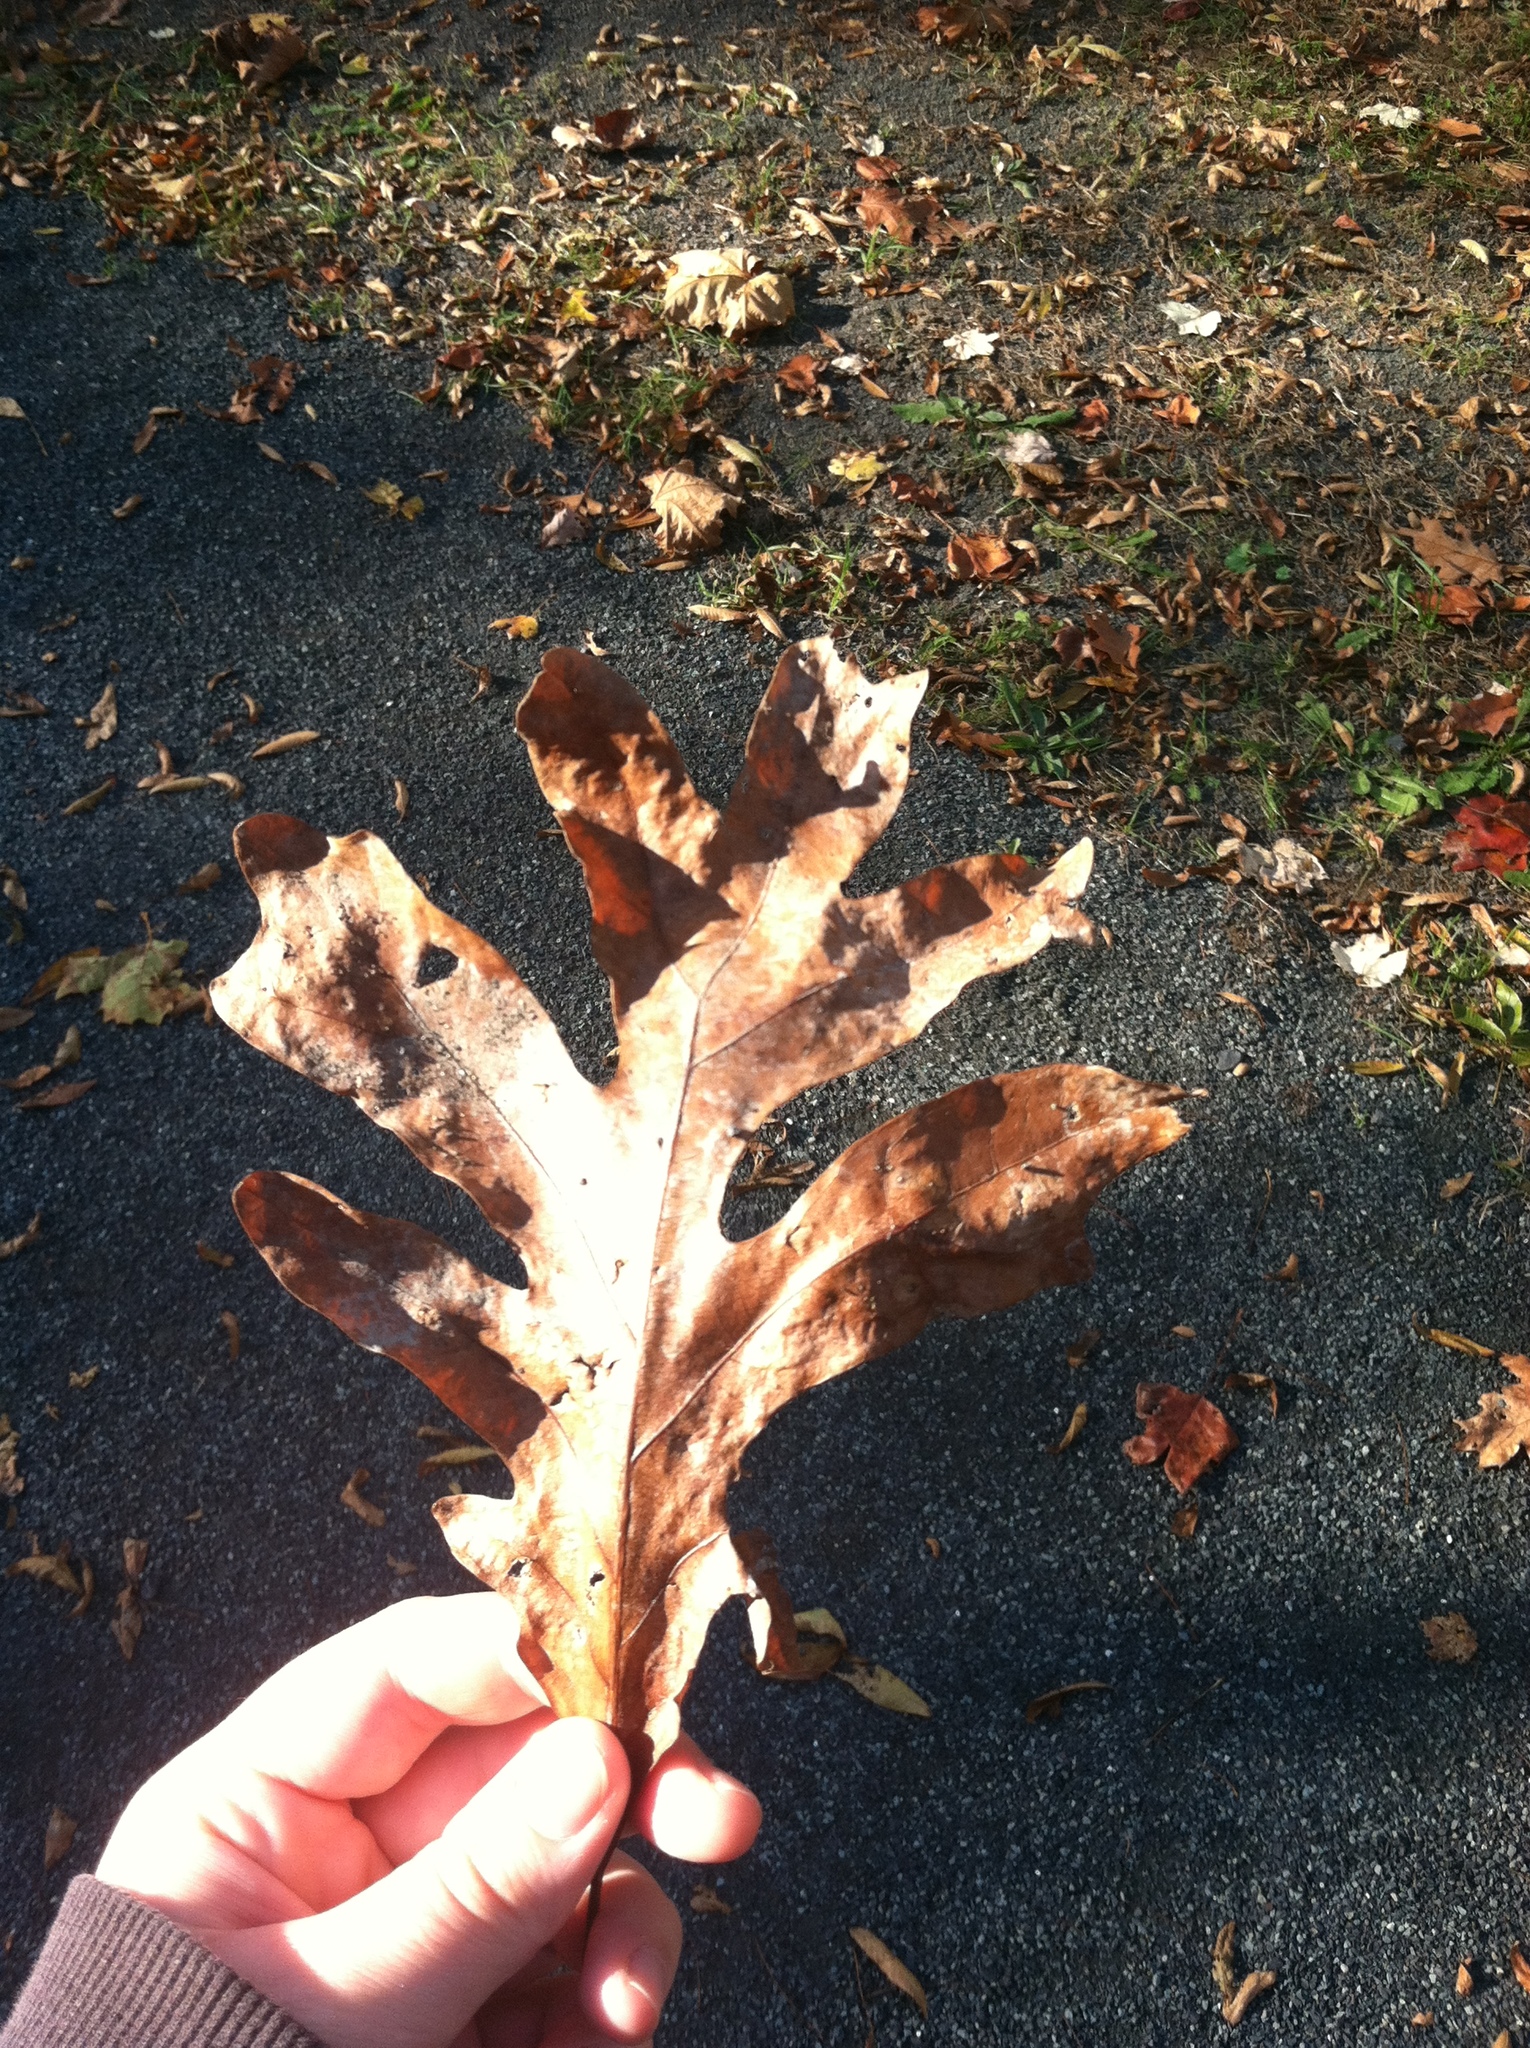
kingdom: Plantae
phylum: Tracheophyta
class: Magnoliopsida
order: Fagales
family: Fagaceae
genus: Quercus
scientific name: Quercus alba
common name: White oak
